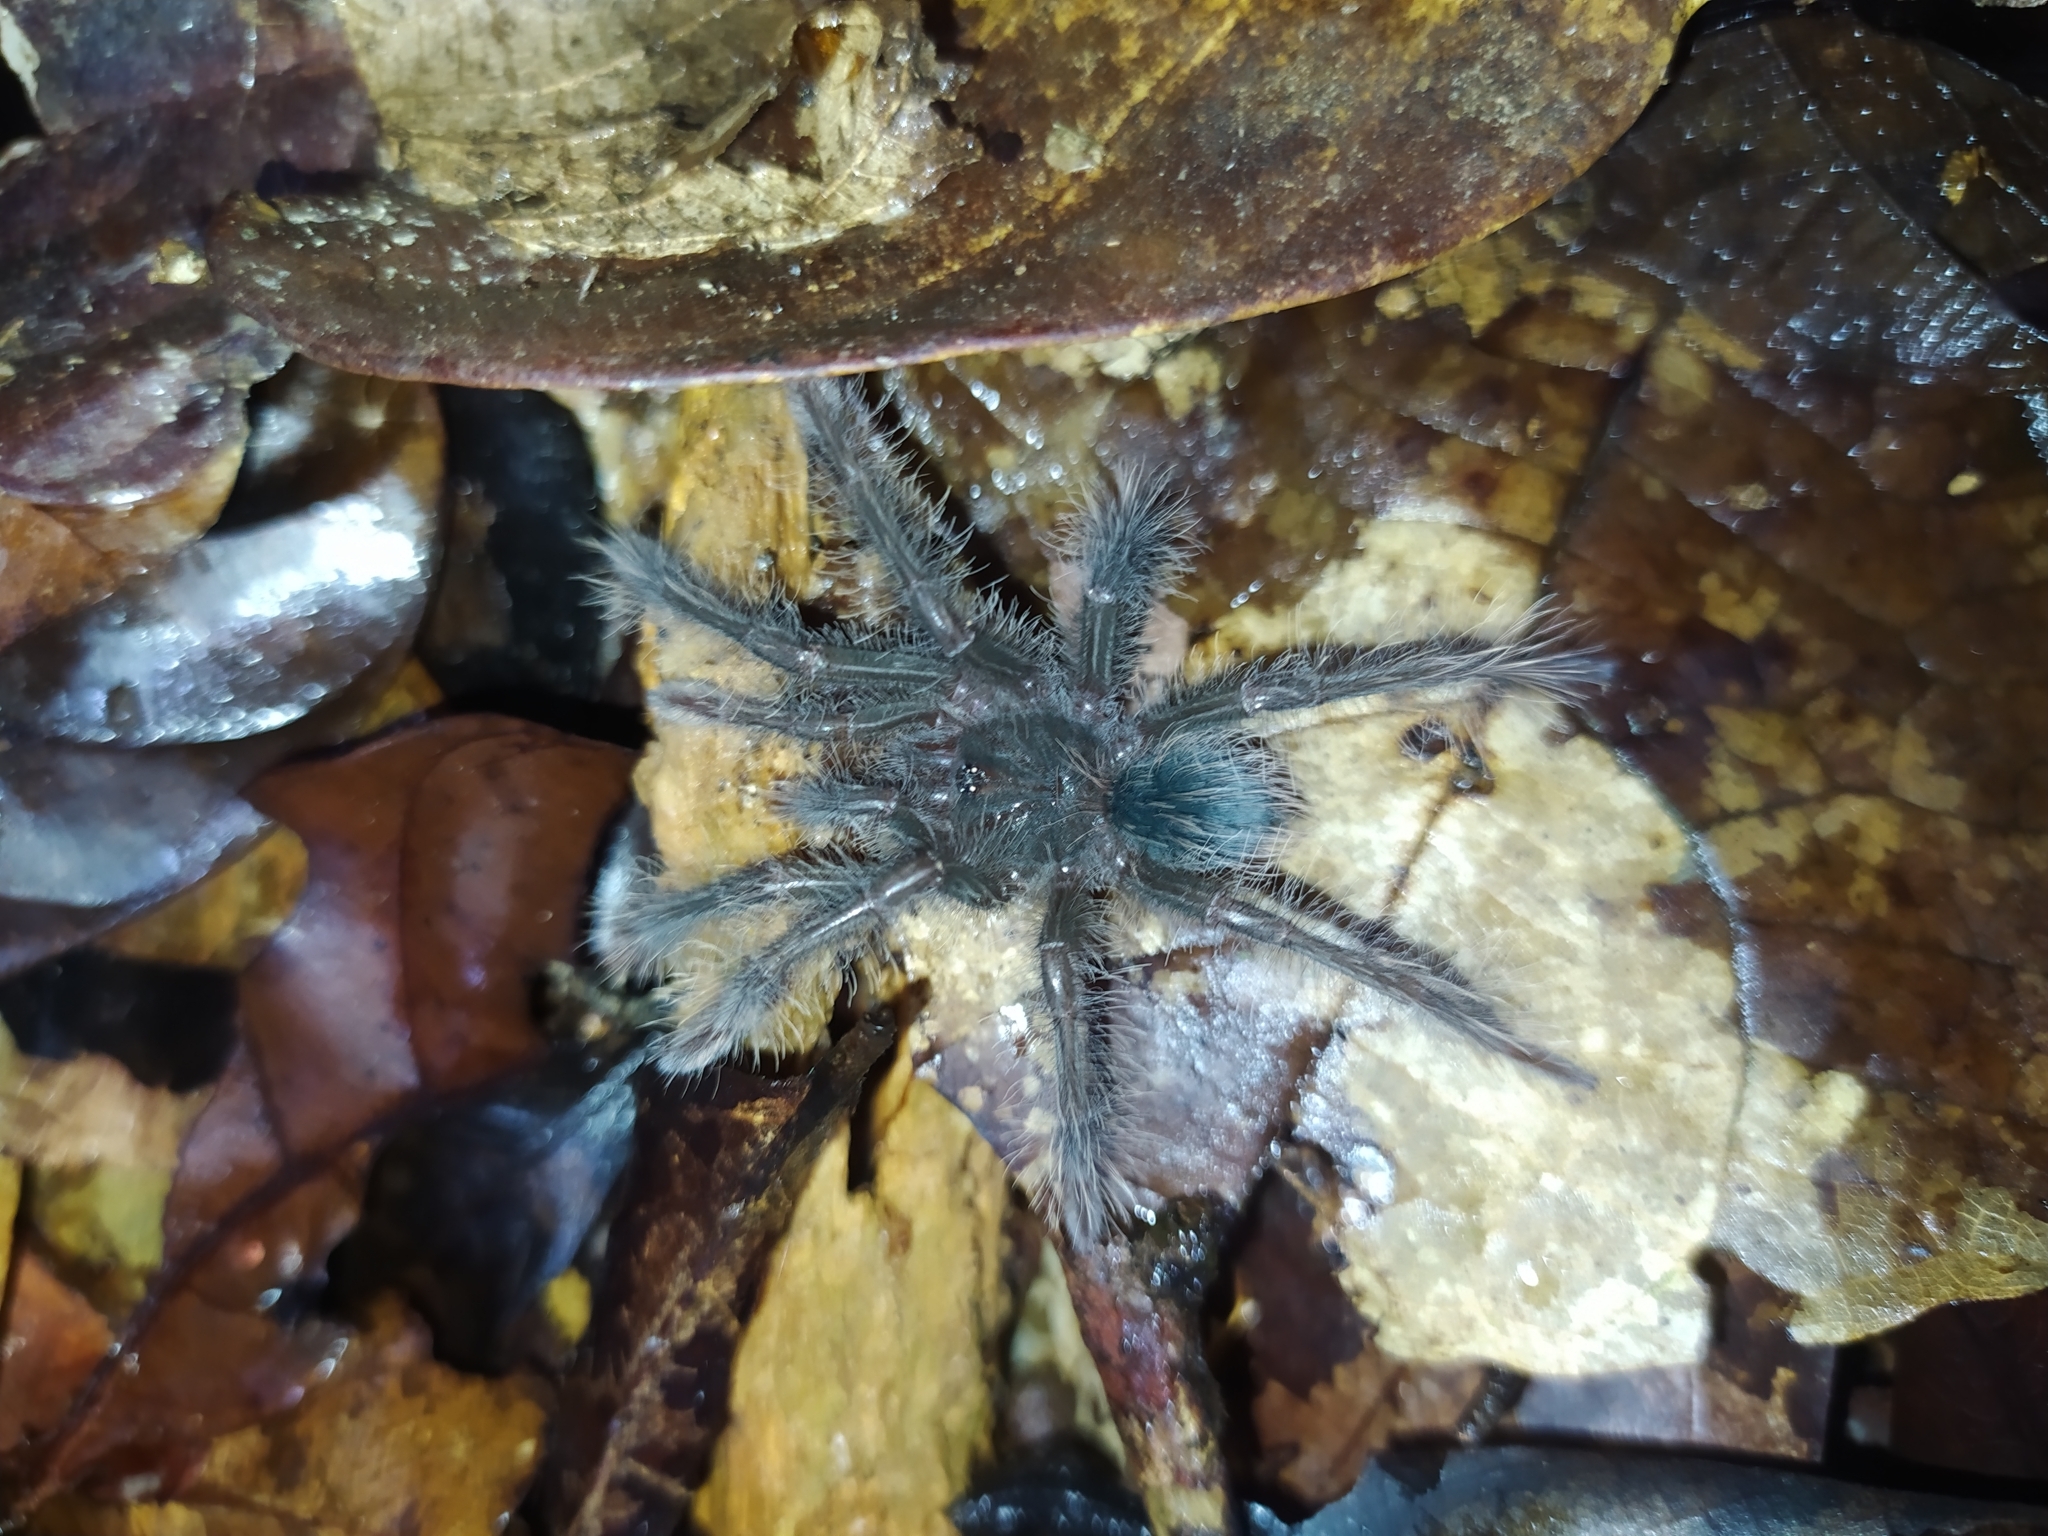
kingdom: Animalia
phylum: Arthropoda
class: Arachnida
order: Araneae
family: Theraphosidae
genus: Theraphosa
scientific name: Theraphosa blondi
